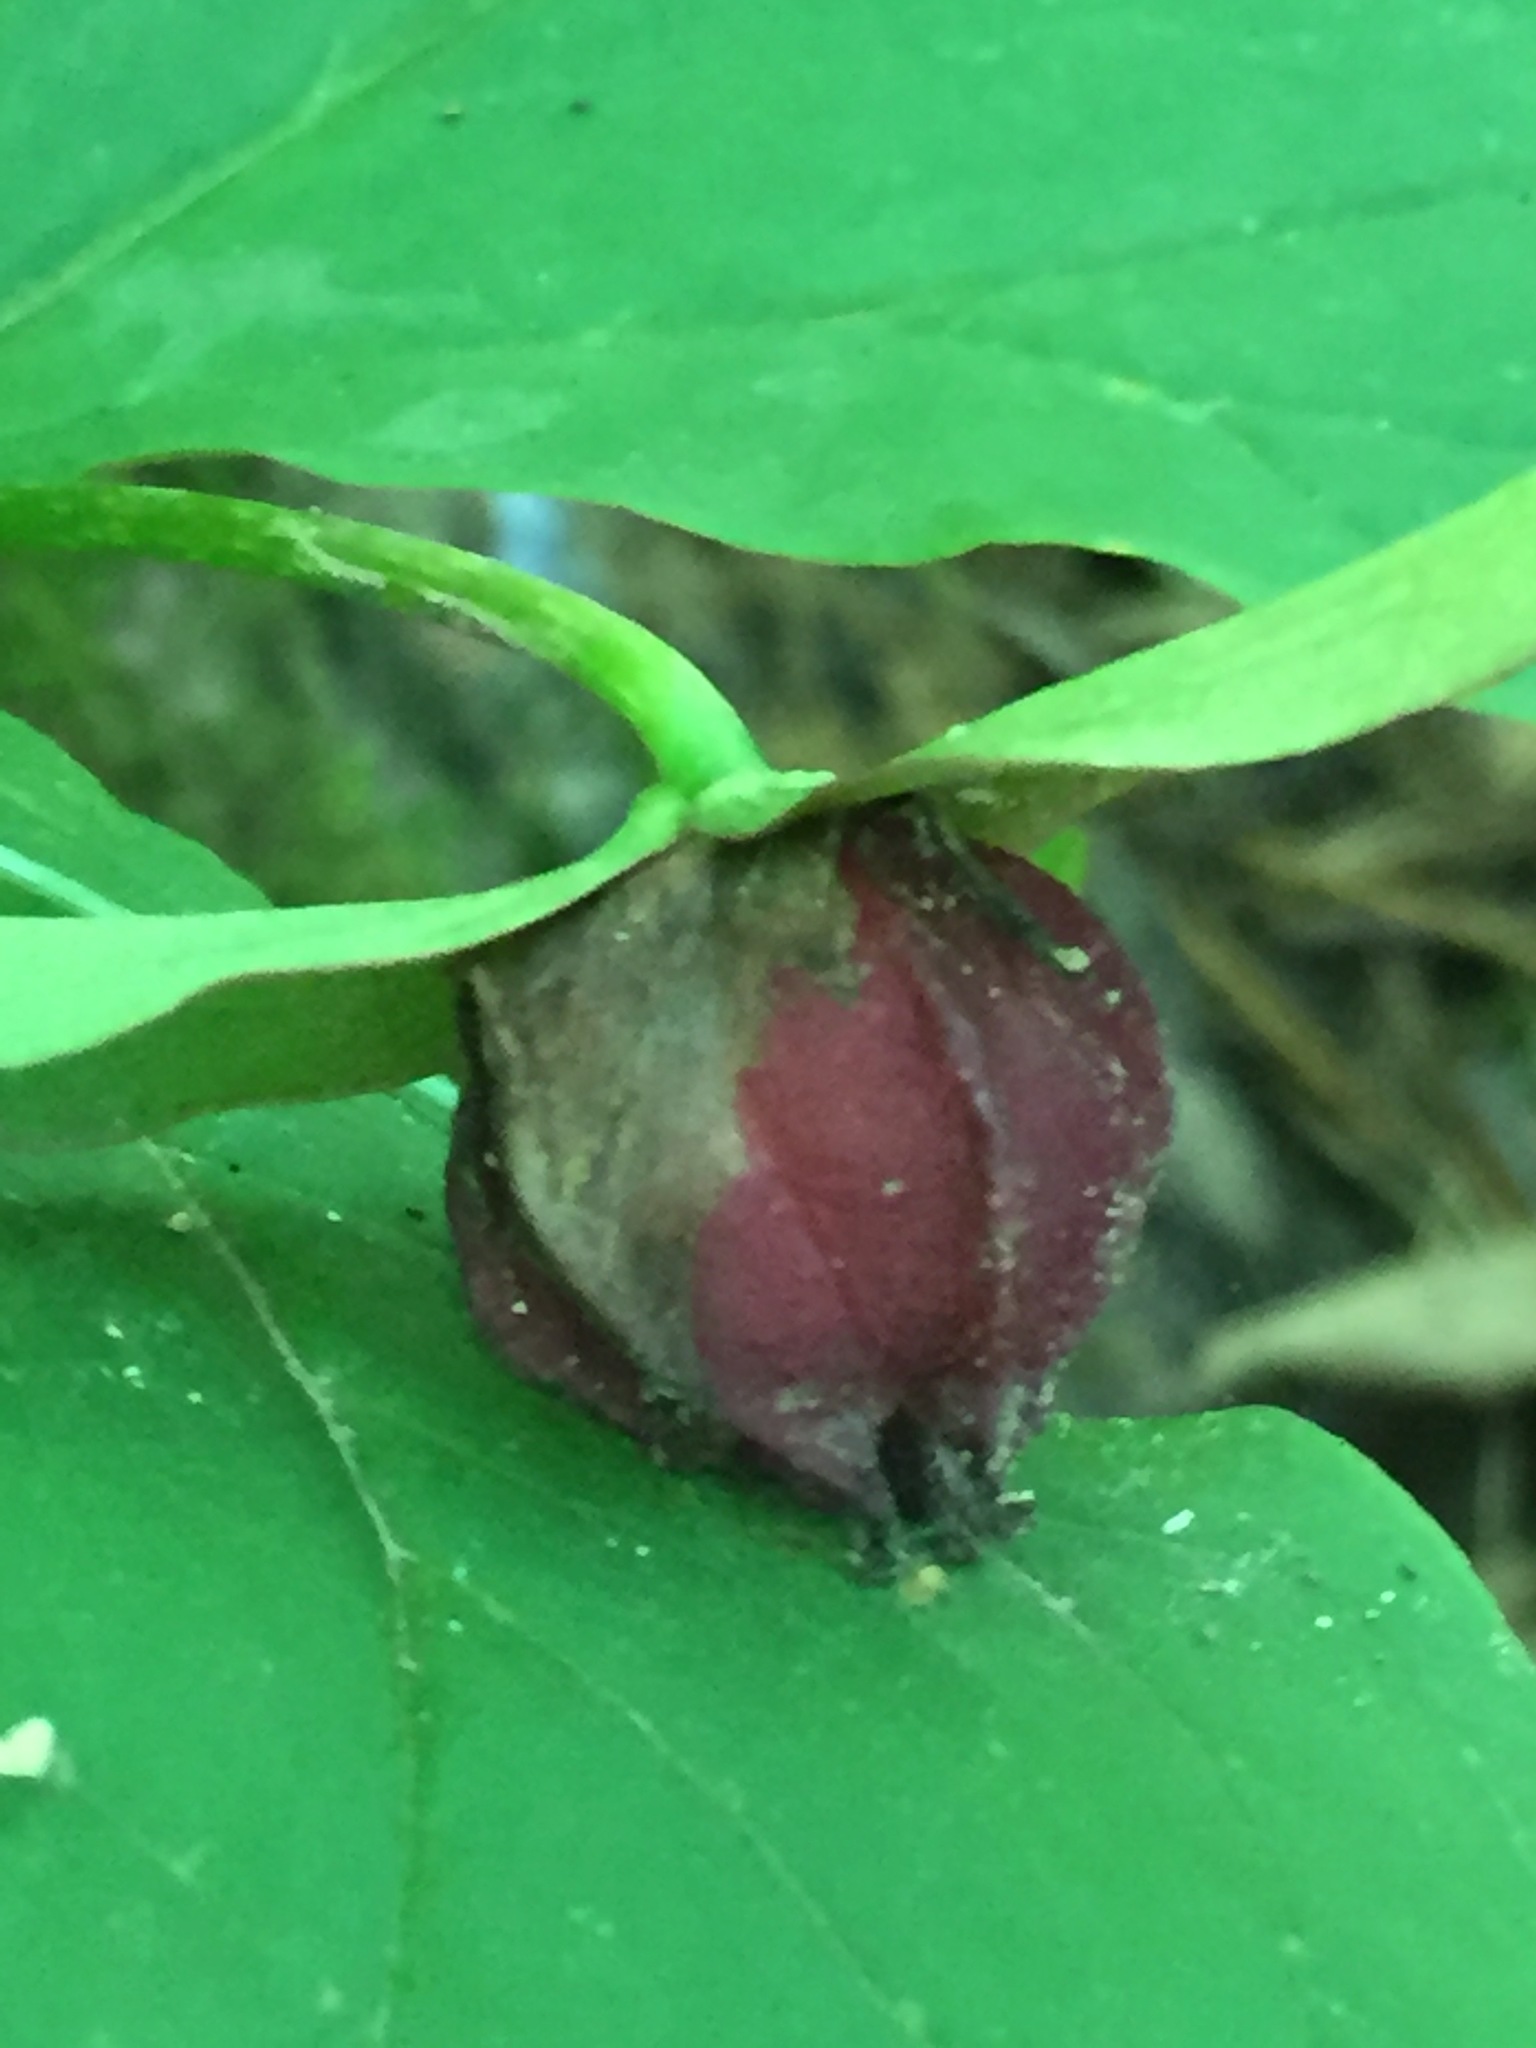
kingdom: Plantae
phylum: Tracheophyta
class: Liliopsida
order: Liliales
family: Melanthiaceae
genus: Trillium
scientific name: Trillium erectum
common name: Purple trillium
